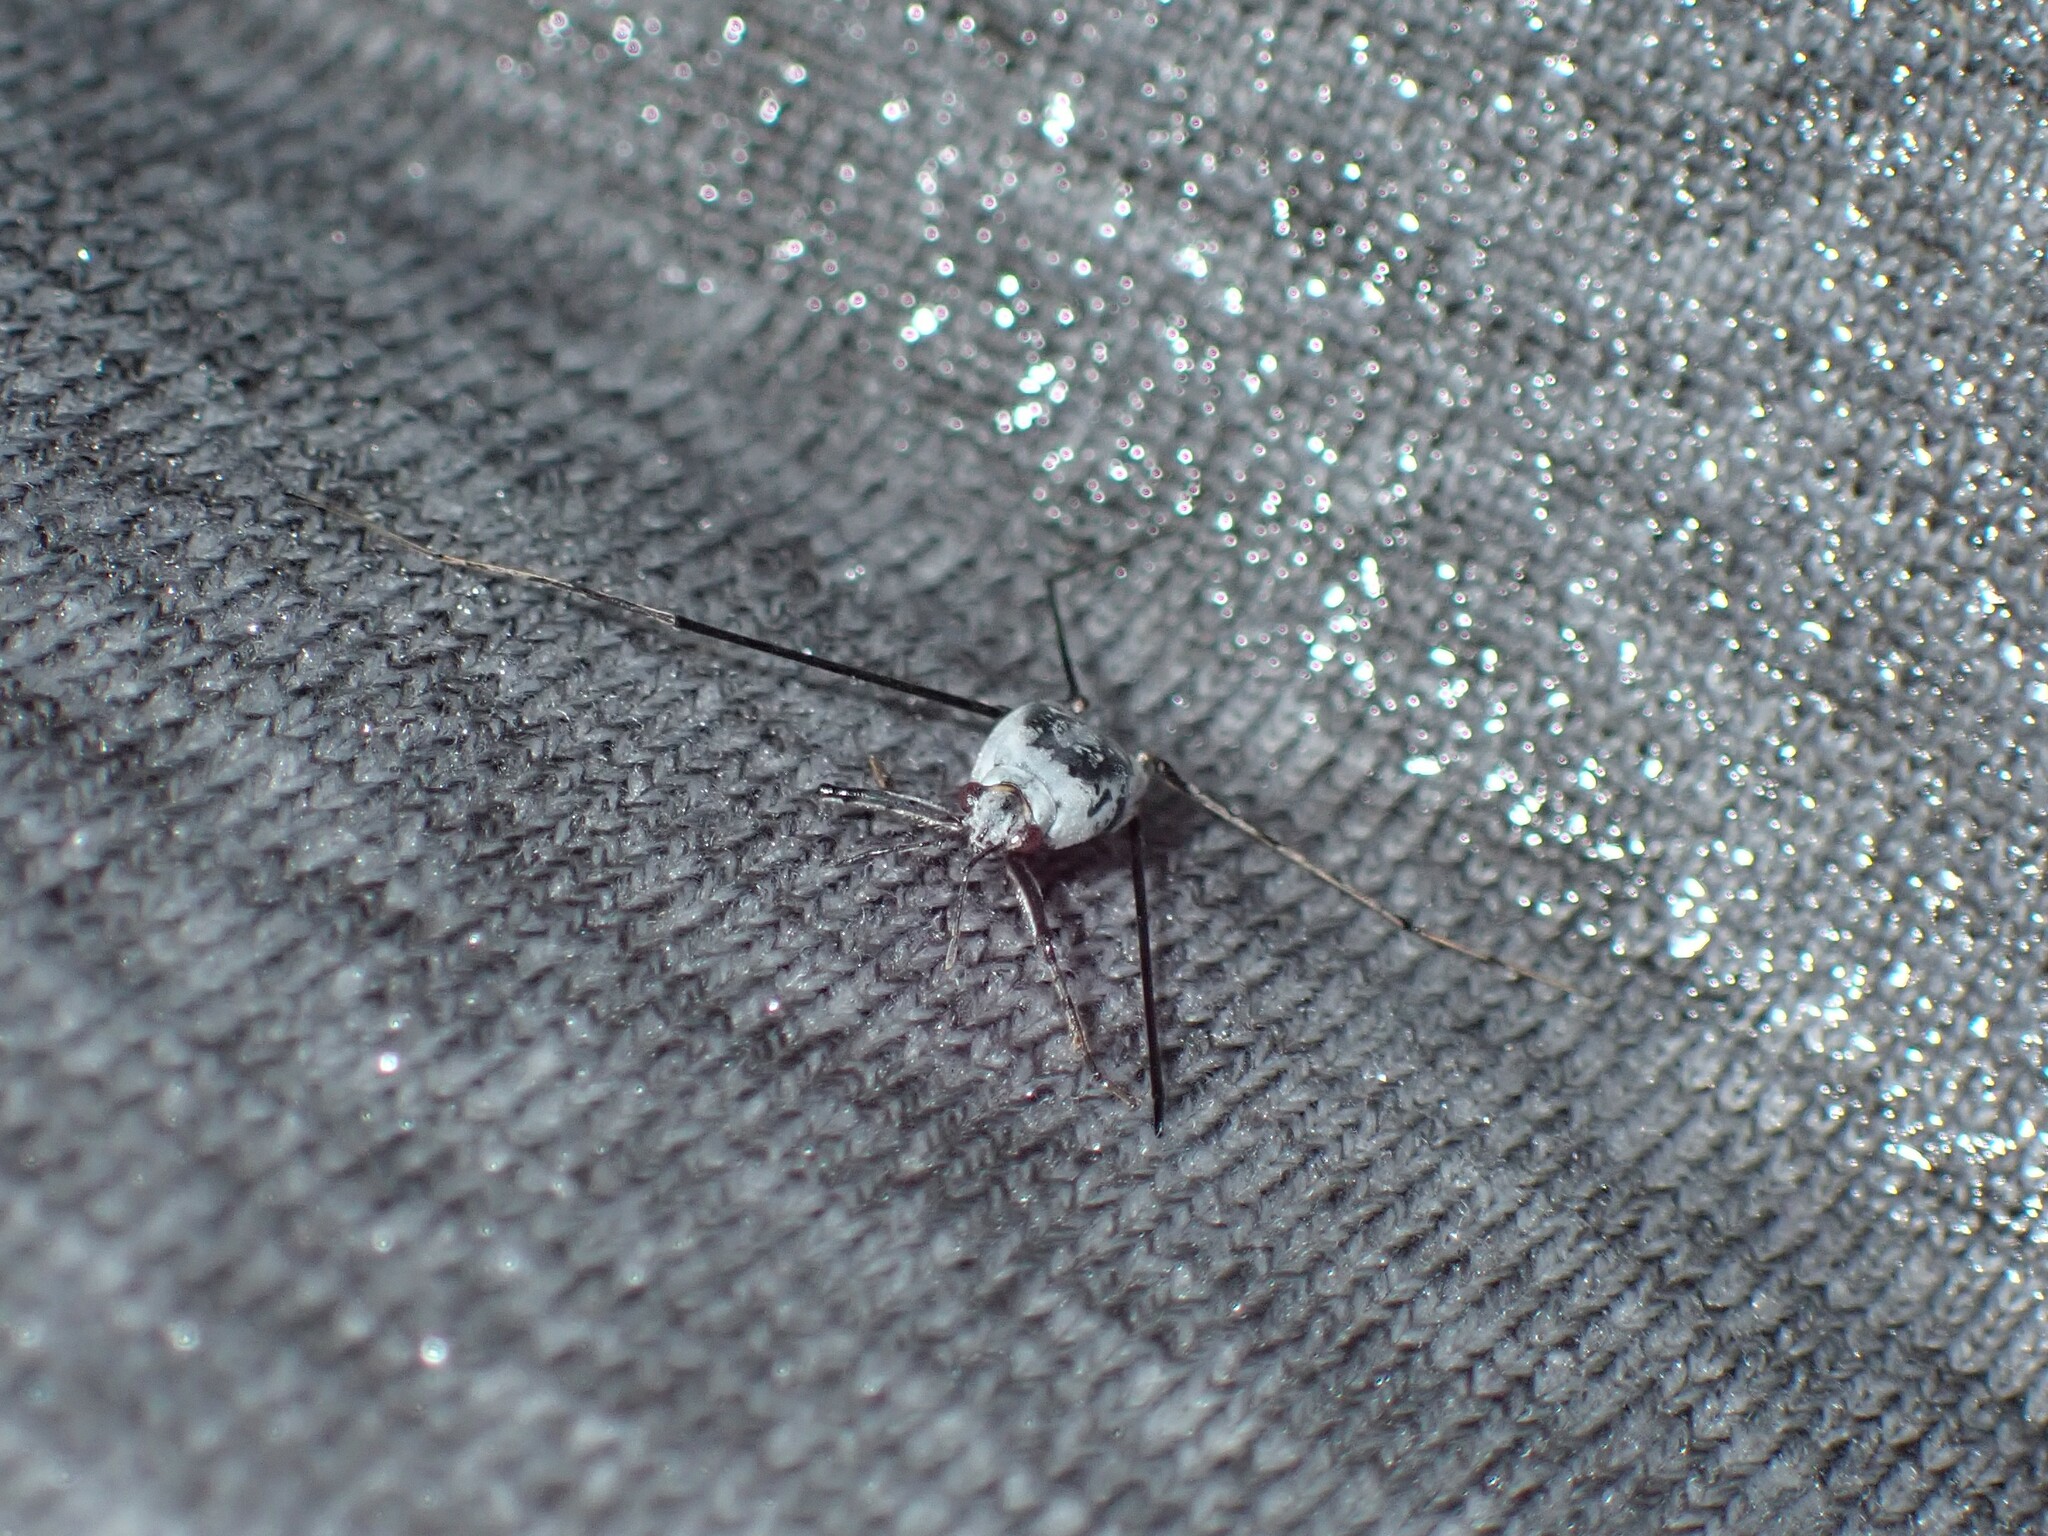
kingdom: Animalia
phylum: Arthropoda
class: Insecta
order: Hemiptera
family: Gerridae
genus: Halobates
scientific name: Halobates
